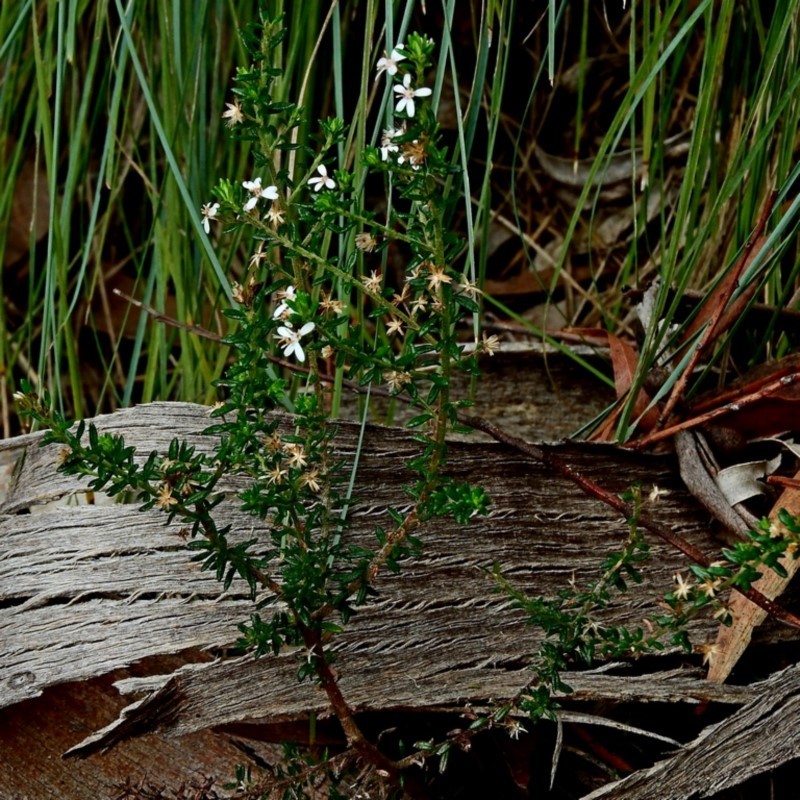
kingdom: Plantae
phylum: Tracheophyta
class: Magnoliopsida
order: Asterales
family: Asteraceae
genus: Olearia
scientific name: Olearia ramulosa
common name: Twiggy daisybush
